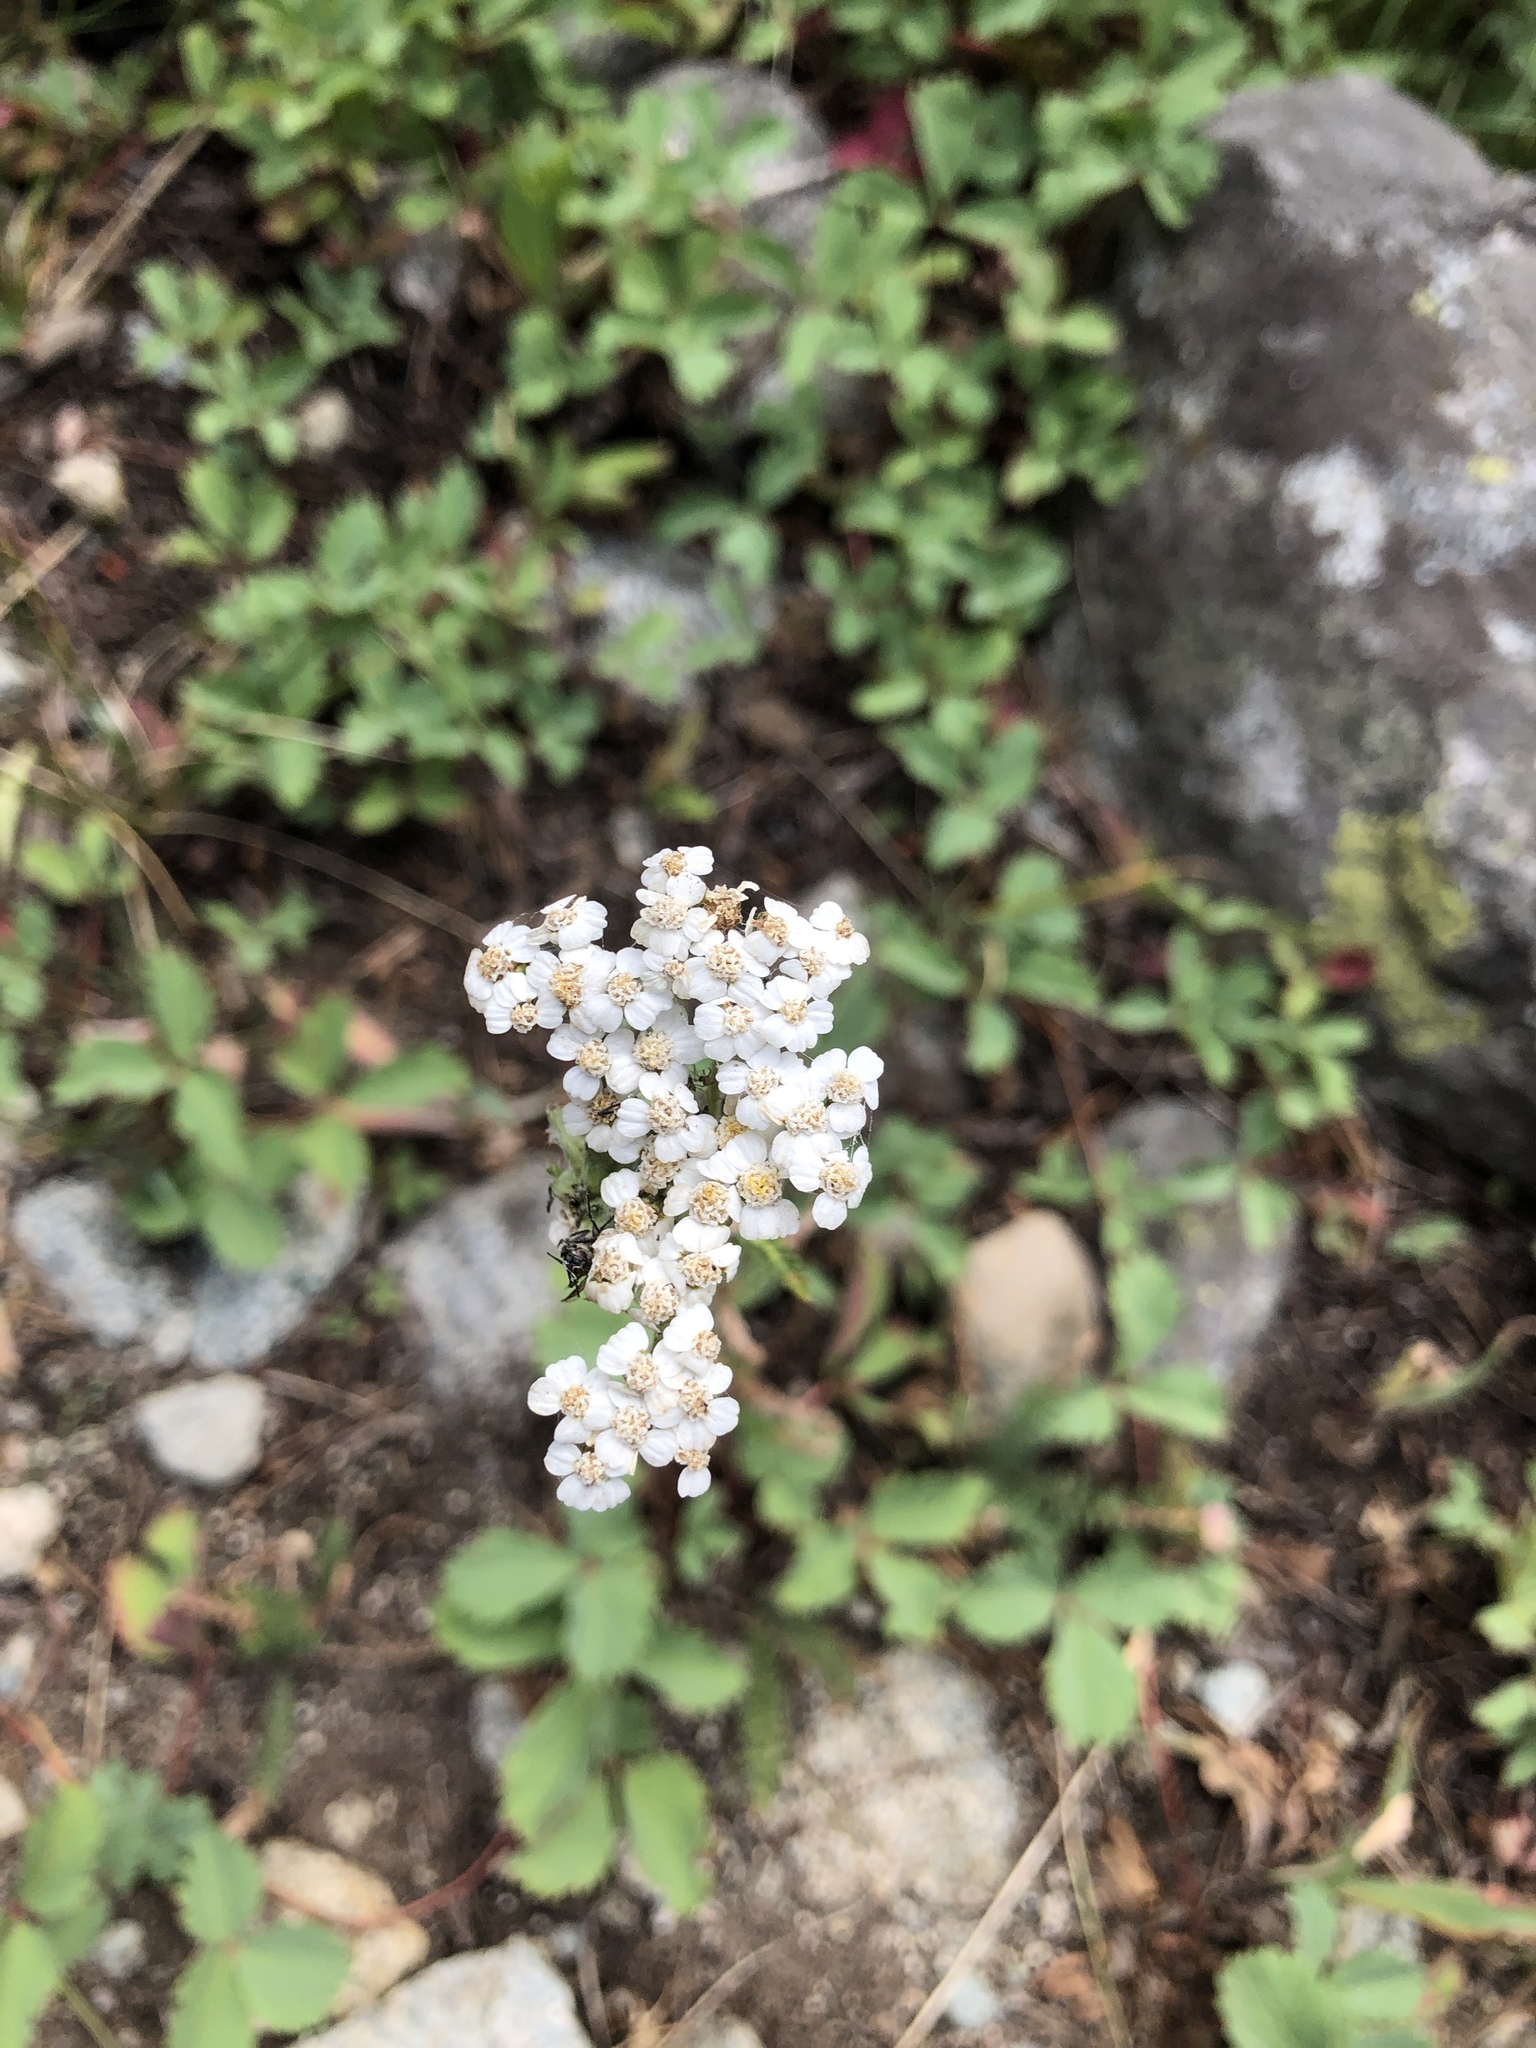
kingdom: Plantae
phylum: Tracheophyta
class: Magnoliopsida
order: Asterales
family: Asteraceae
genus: Achillea
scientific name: Achillea millefolium
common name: Yarrow
